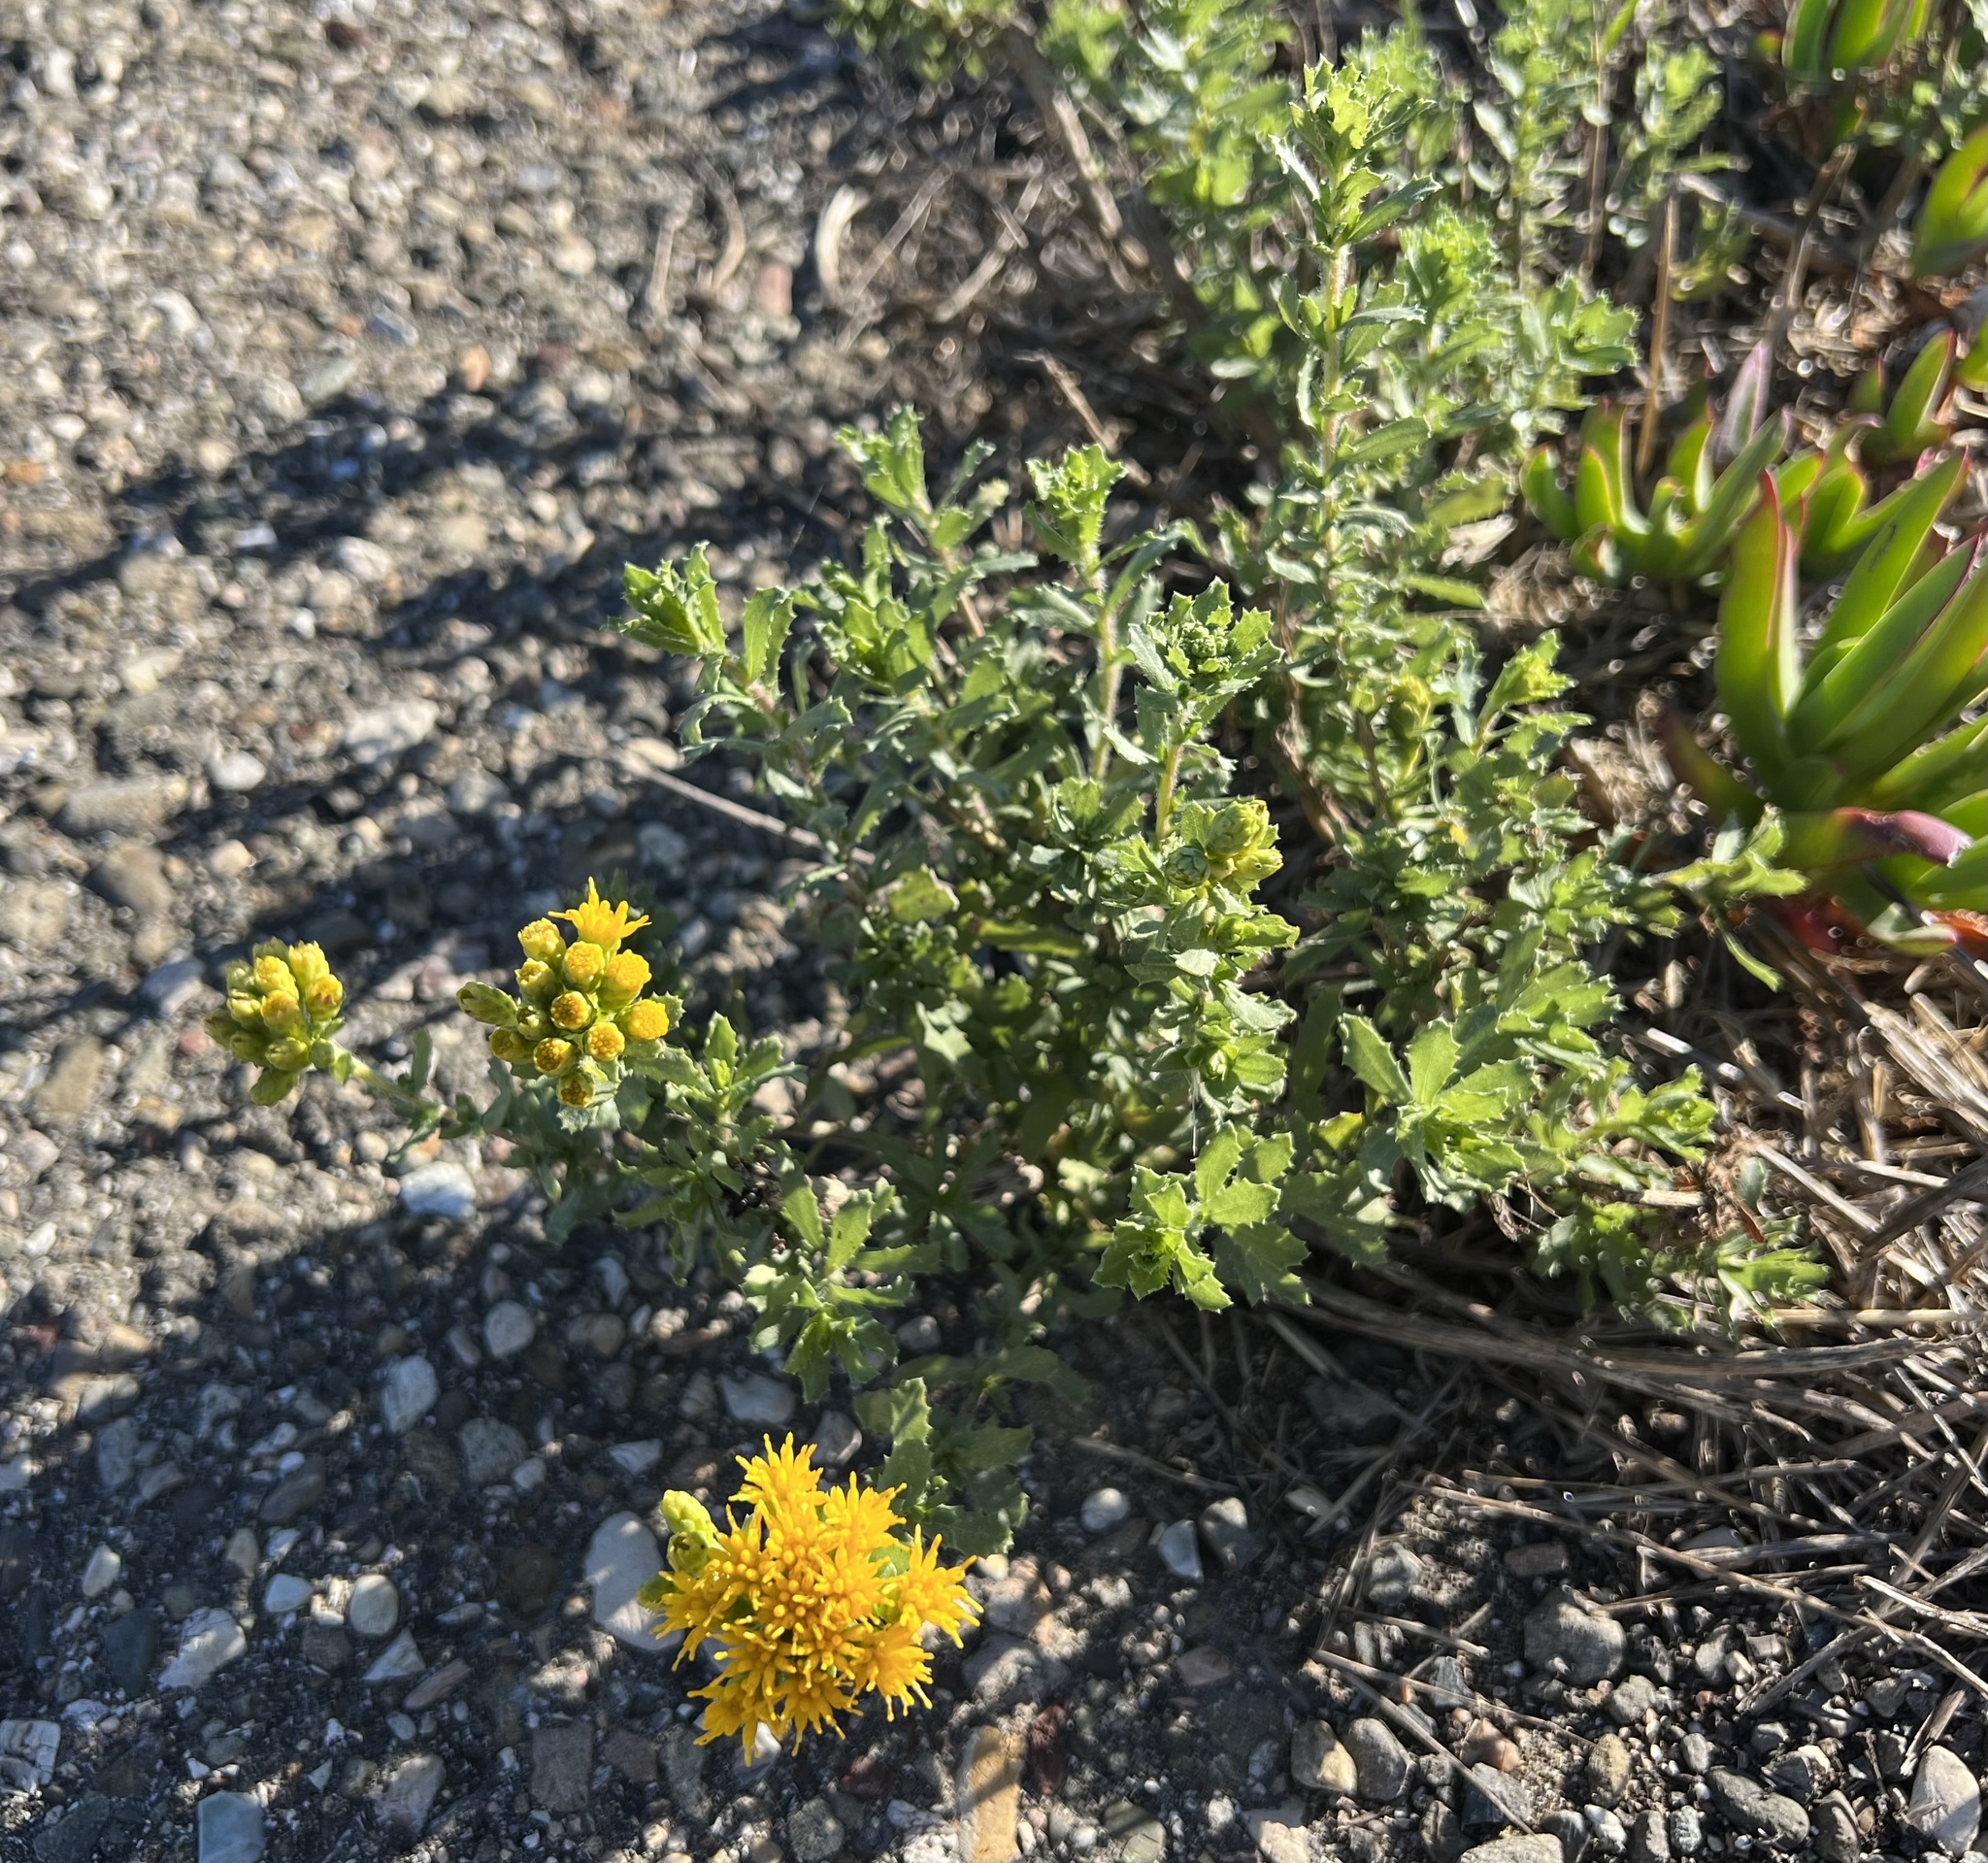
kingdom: Plantae
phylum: Tracheophyta
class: Magnoliopsida
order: Asterales
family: Asteraceae
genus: Isocoma
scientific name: Isocoma menziesii
